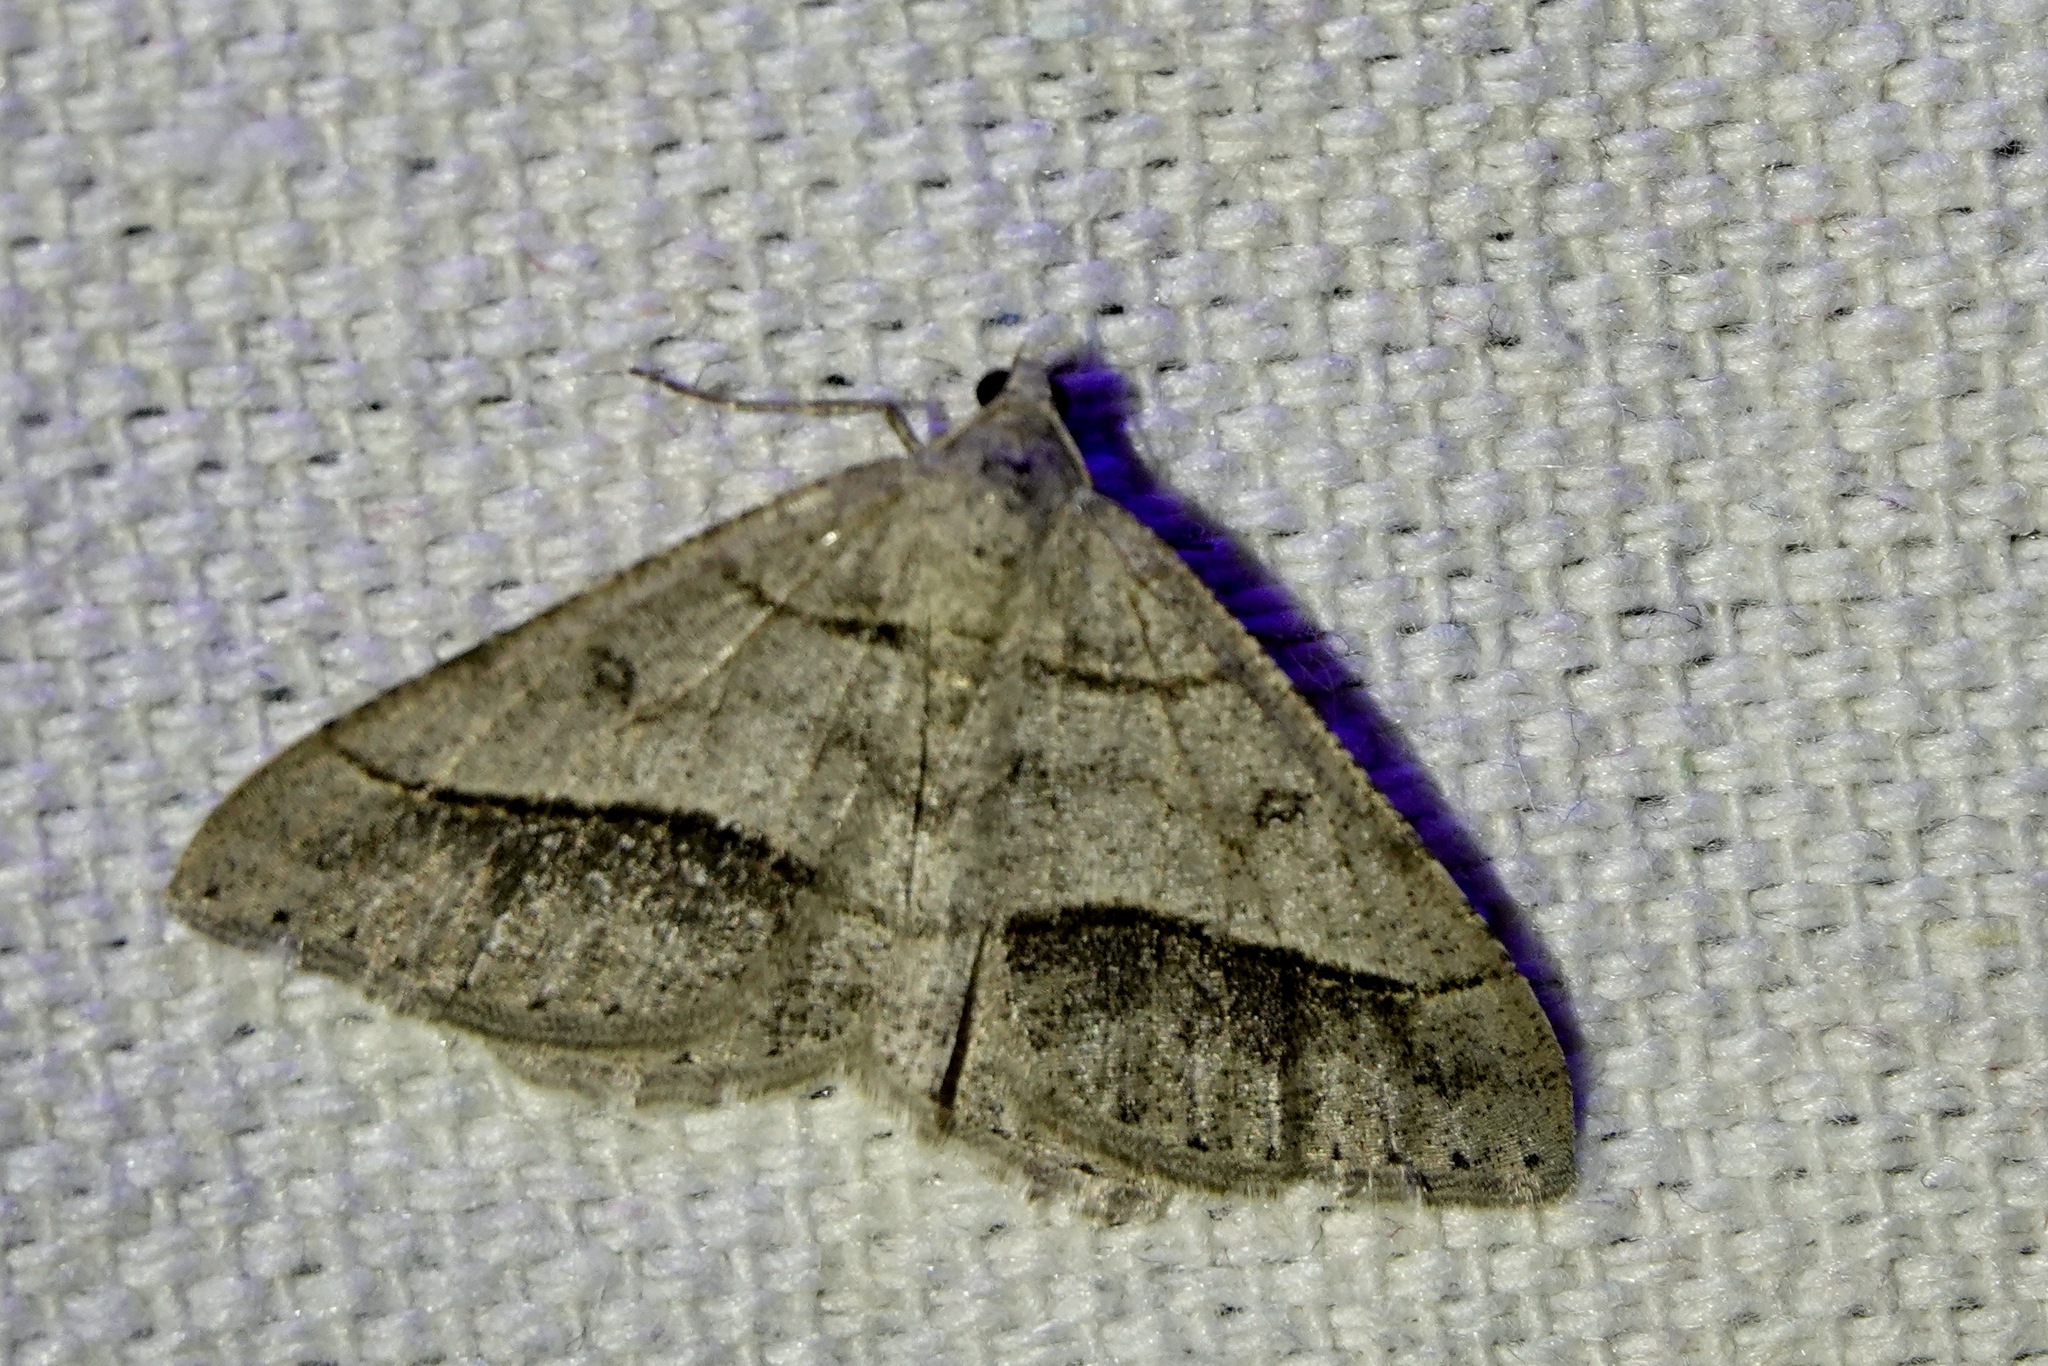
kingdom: Animalia
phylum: Arthropoda
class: Insecta
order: Lepidoptera
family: Geometridae
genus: Digrammia
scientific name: Digrammia neptaria
